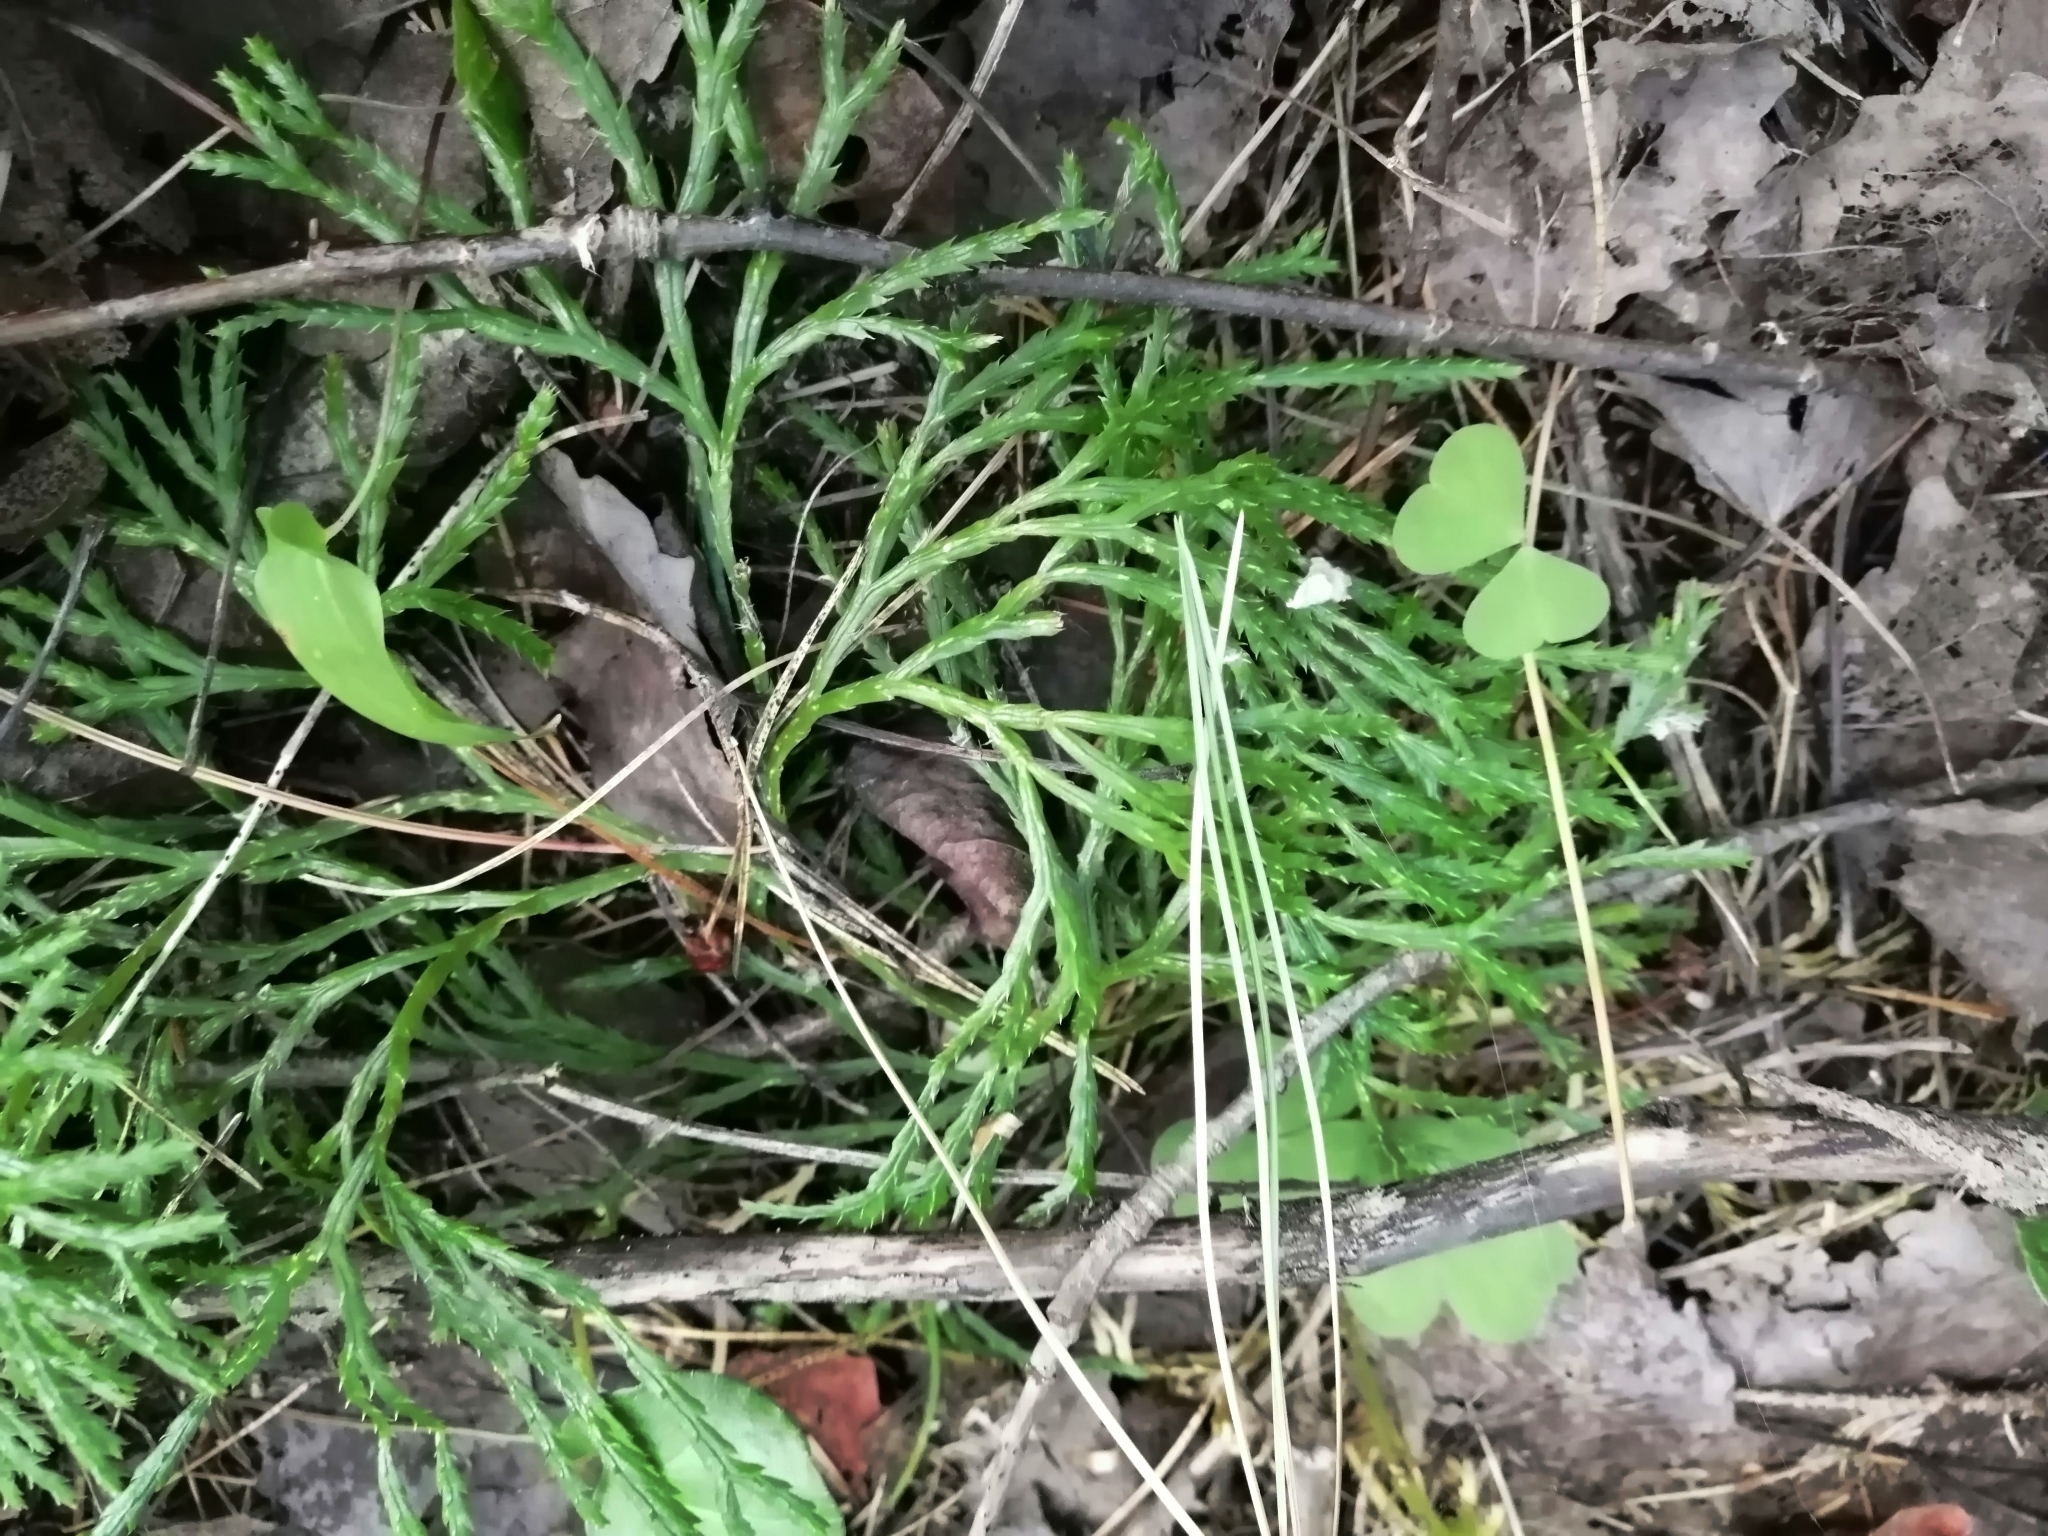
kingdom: Plantae
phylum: Tracheophyta
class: Lycopodiopsida
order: Lycopodiales
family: Lycopodiaceae
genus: Diphasiastrum
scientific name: Diphasiastrum complanatum
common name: Northern running-pine
